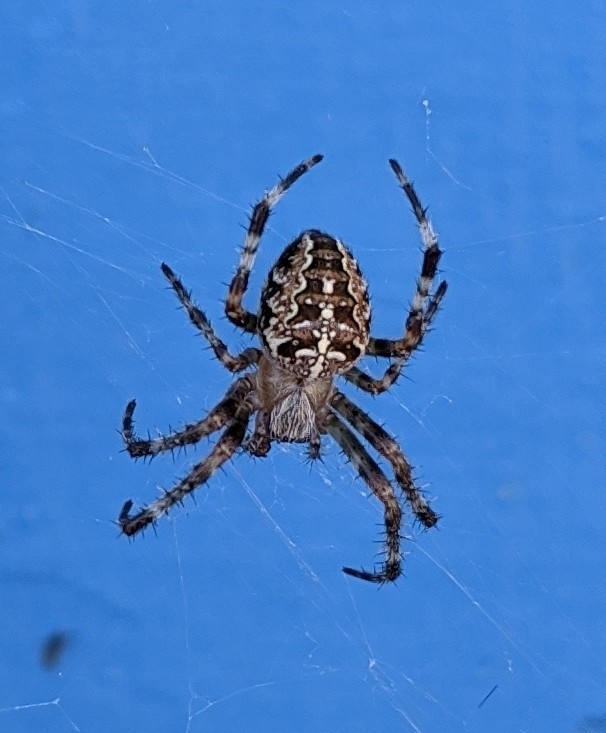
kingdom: Animalia
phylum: Arthropoda
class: Arachnida
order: Araneae
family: Araneidae
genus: Araneus
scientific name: Araneus diadematus
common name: Cross orbweaver
